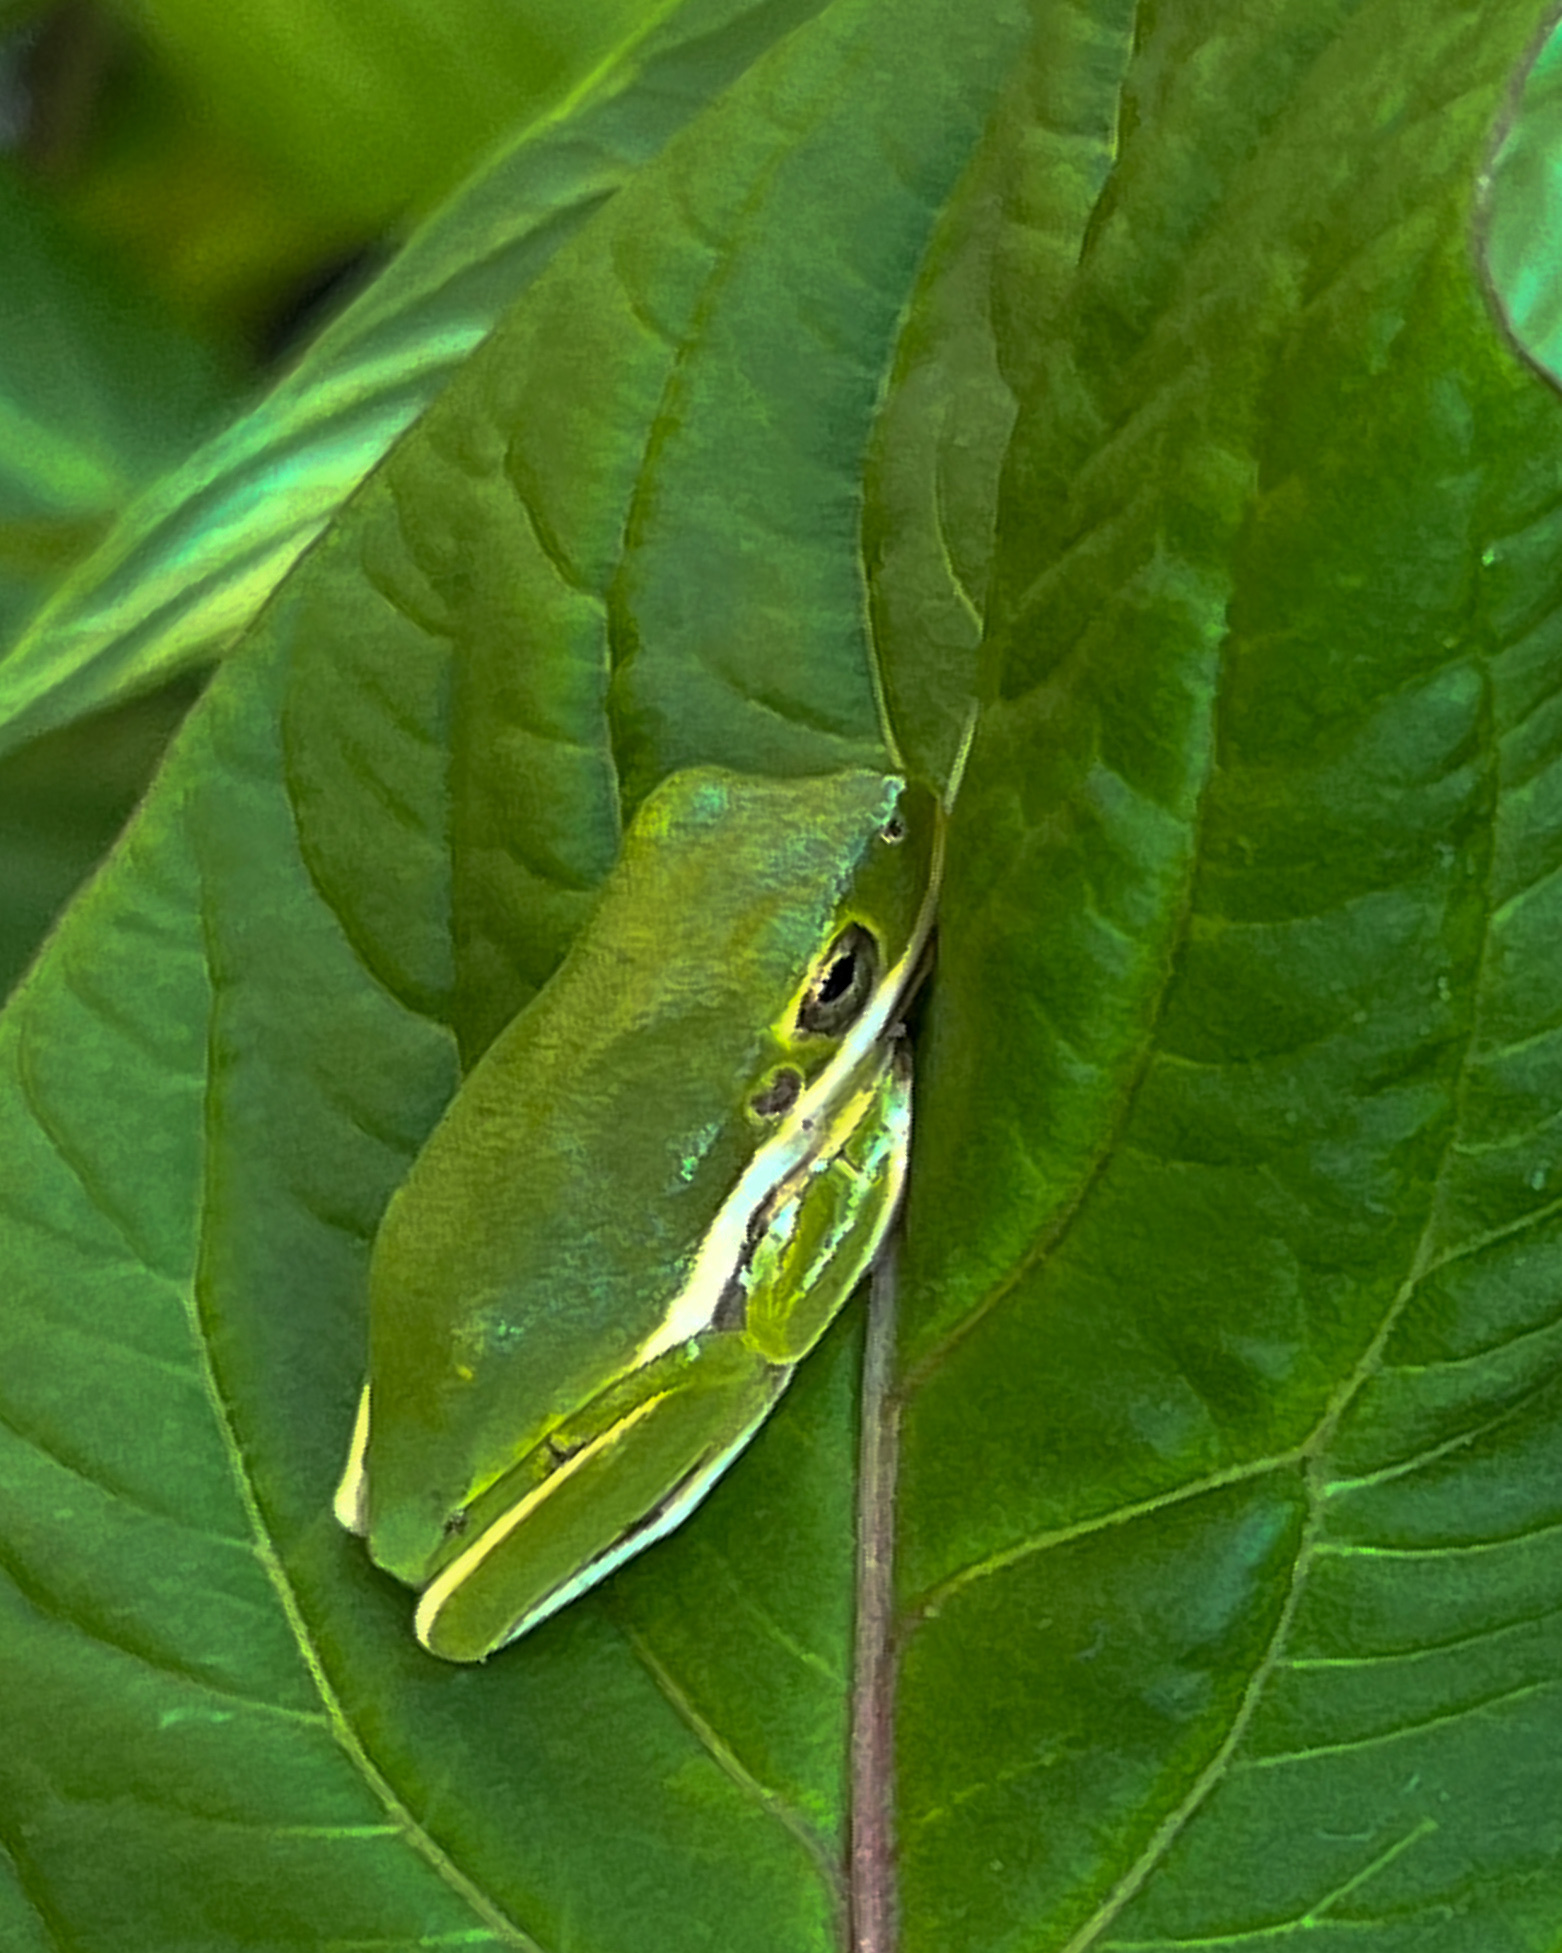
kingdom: Animalia
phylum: Chordata
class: Amphibia
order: Anura
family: Hylidae
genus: Dryophytes
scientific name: Dryophytes cinereus
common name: Green treefrog
